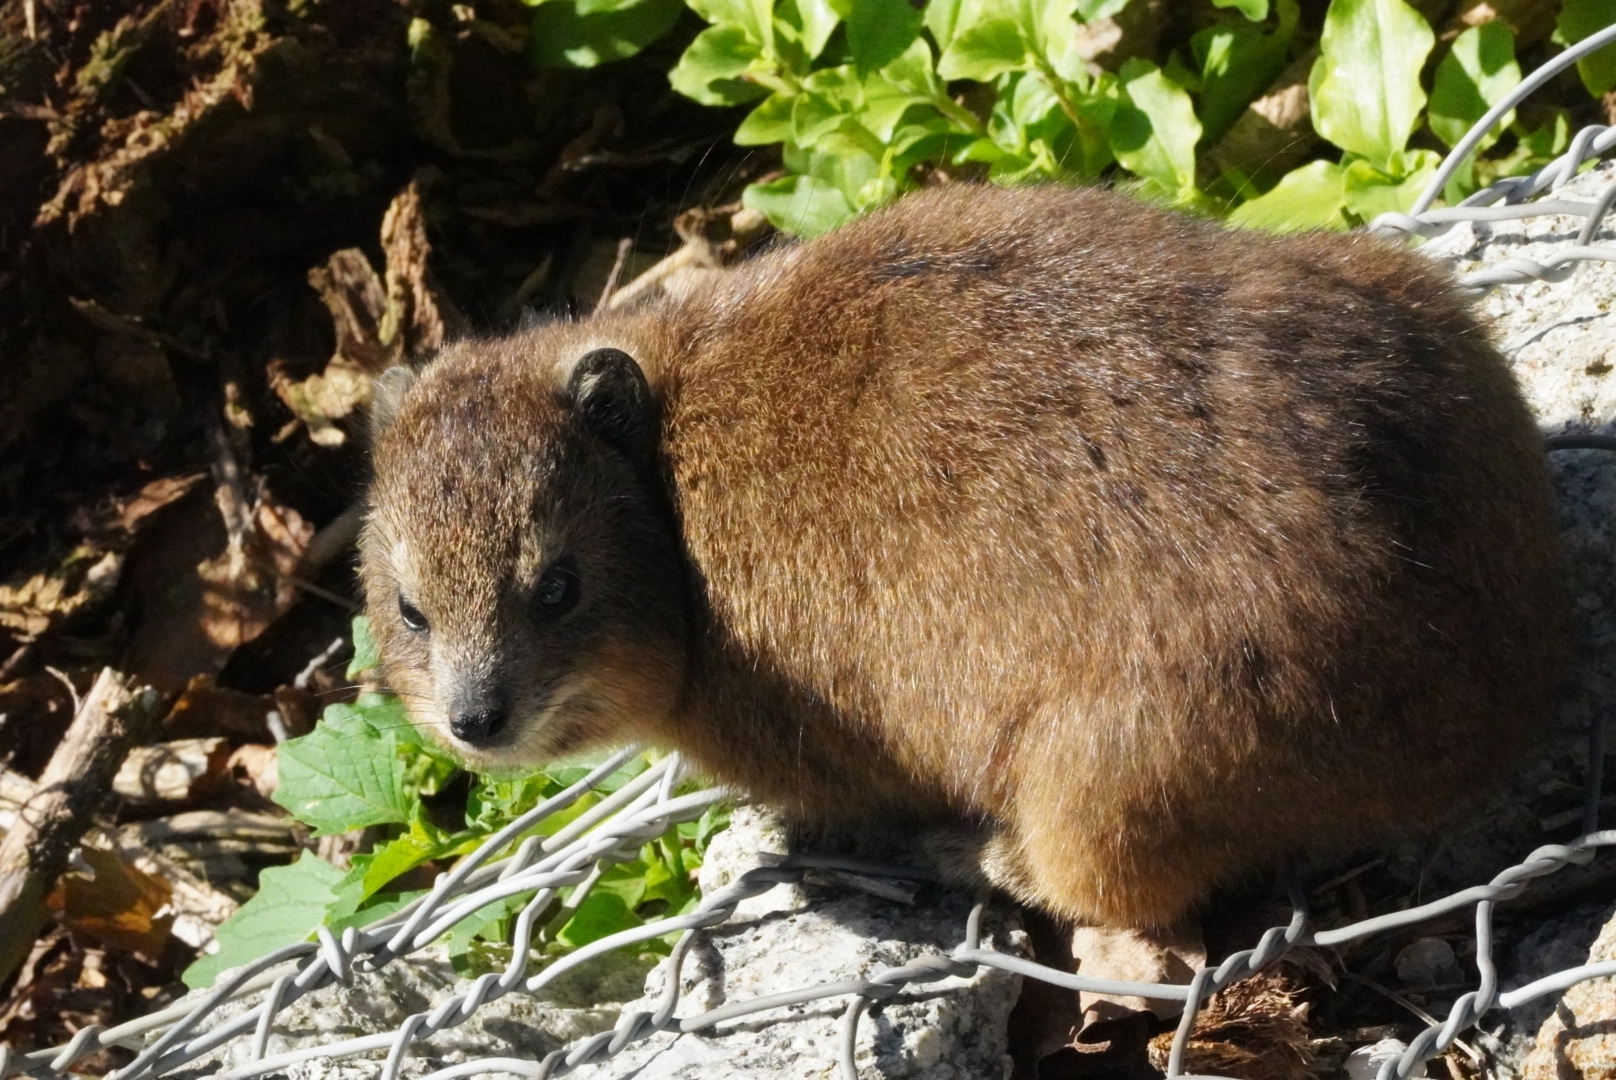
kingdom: Animalia
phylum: Chordata
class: Mammalia
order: Hyracoidea
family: Procaviidae
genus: Procavia
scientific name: Procavia capensis
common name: Rock hyrax
